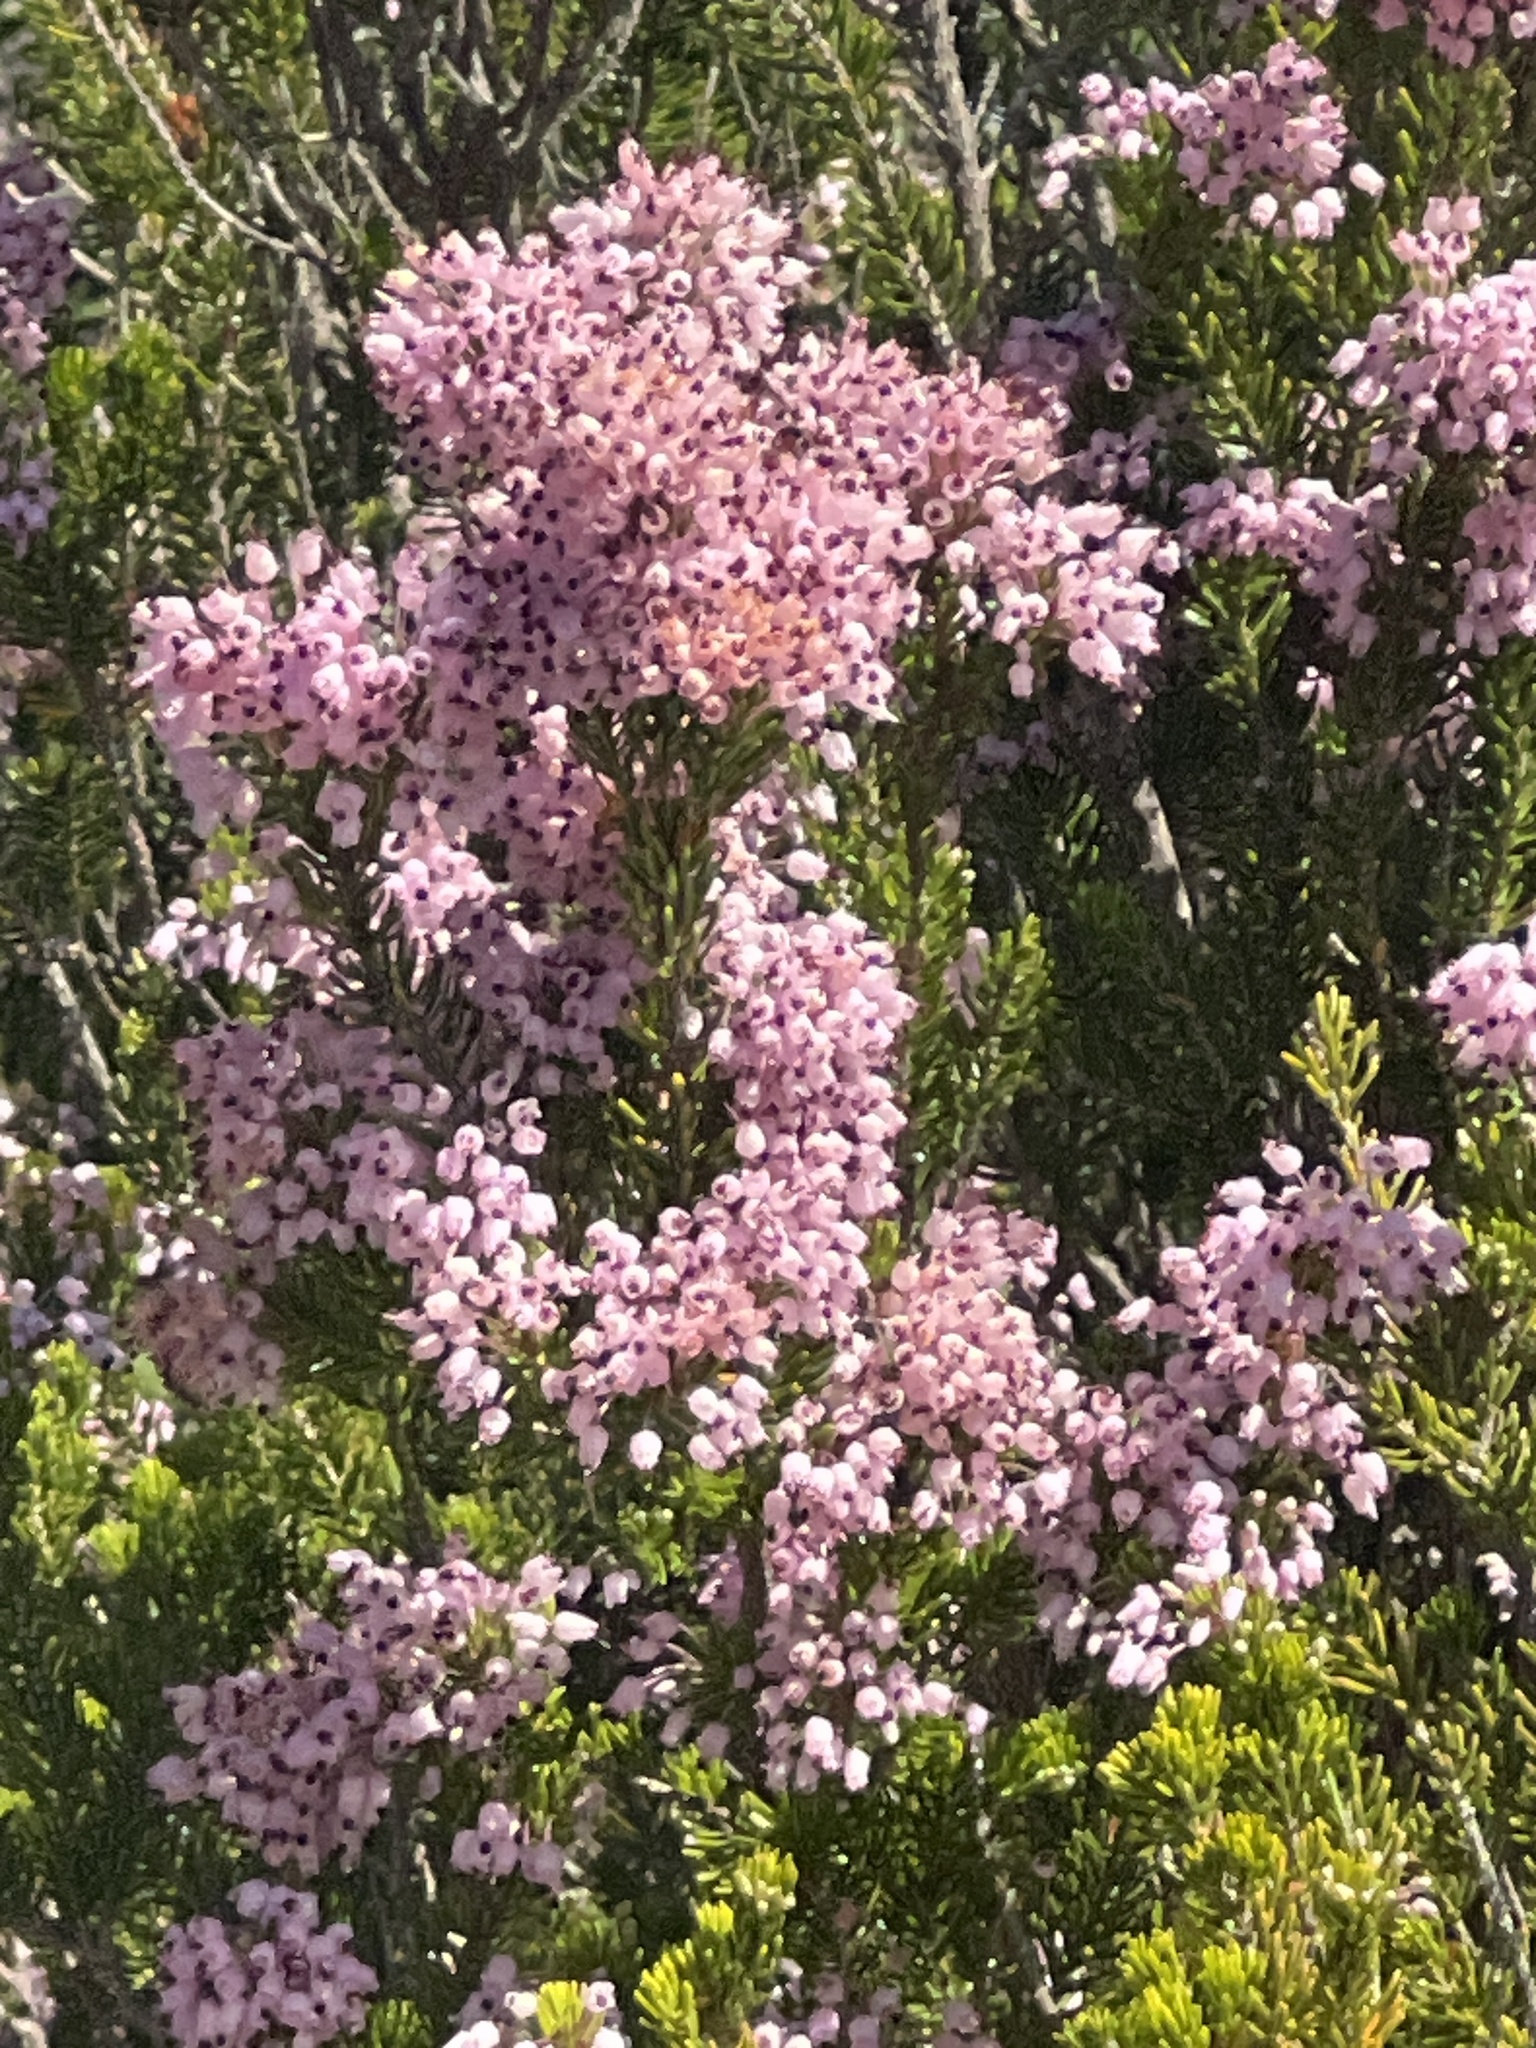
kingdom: Plantae
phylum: Tracheophyta
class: Magnoliopsida
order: Ericales
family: Ericaceae
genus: Erica
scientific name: Erica multiflora
